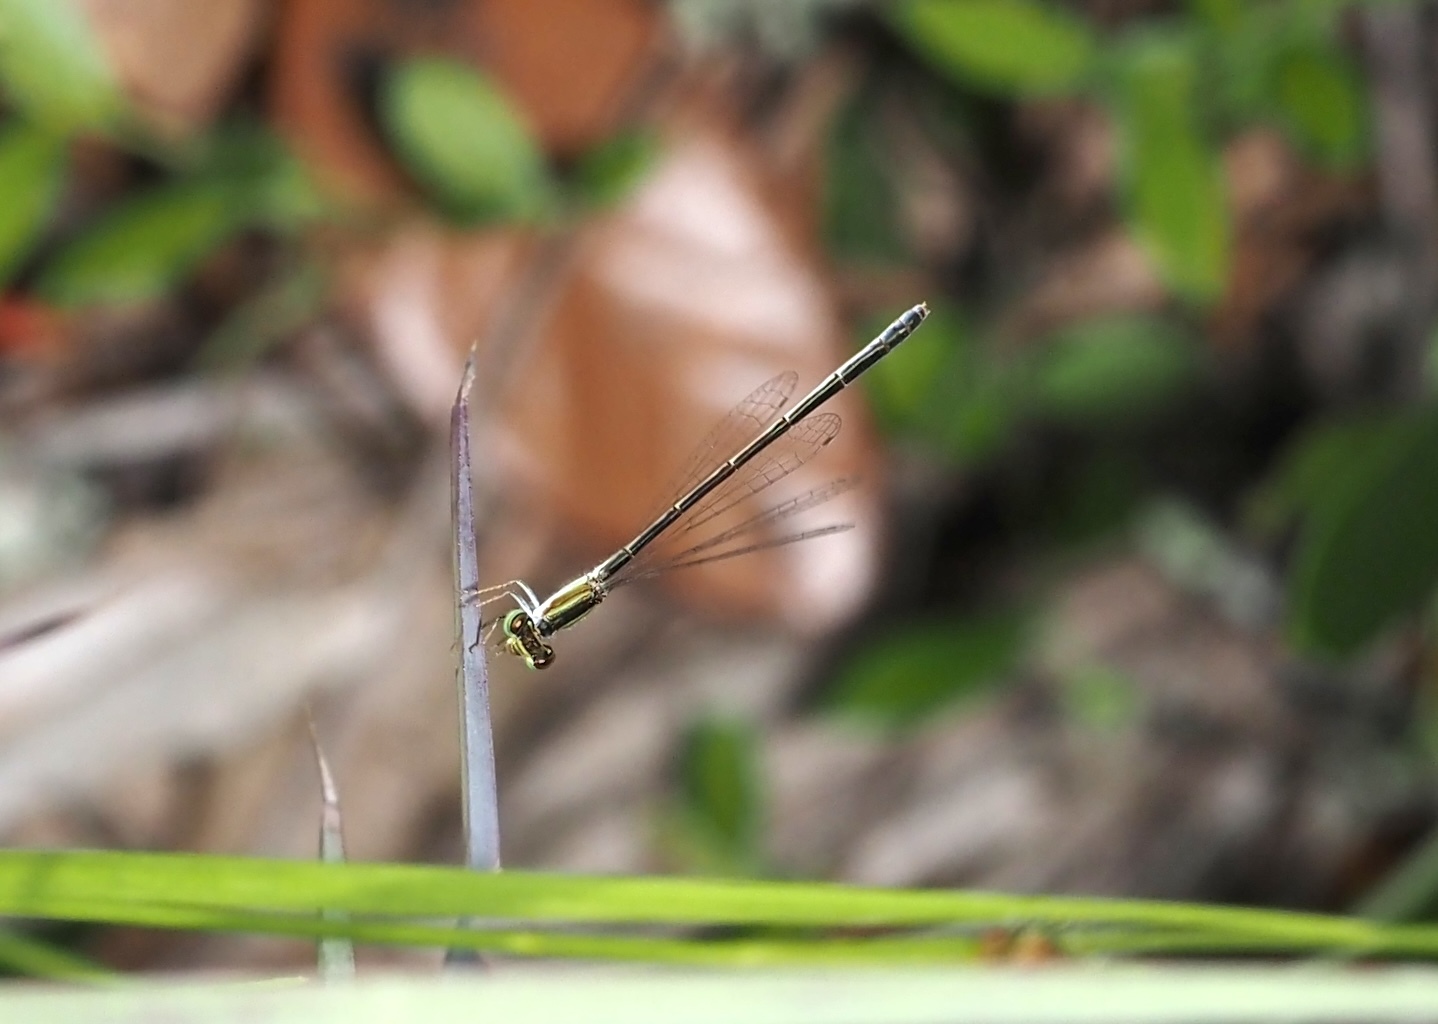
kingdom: Animalia
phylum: Arthropoda
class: Insecta
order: Odonata
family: Coenagrionidae
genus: Ischnura
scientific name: Ischnura hastata
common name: Citrine forktail
